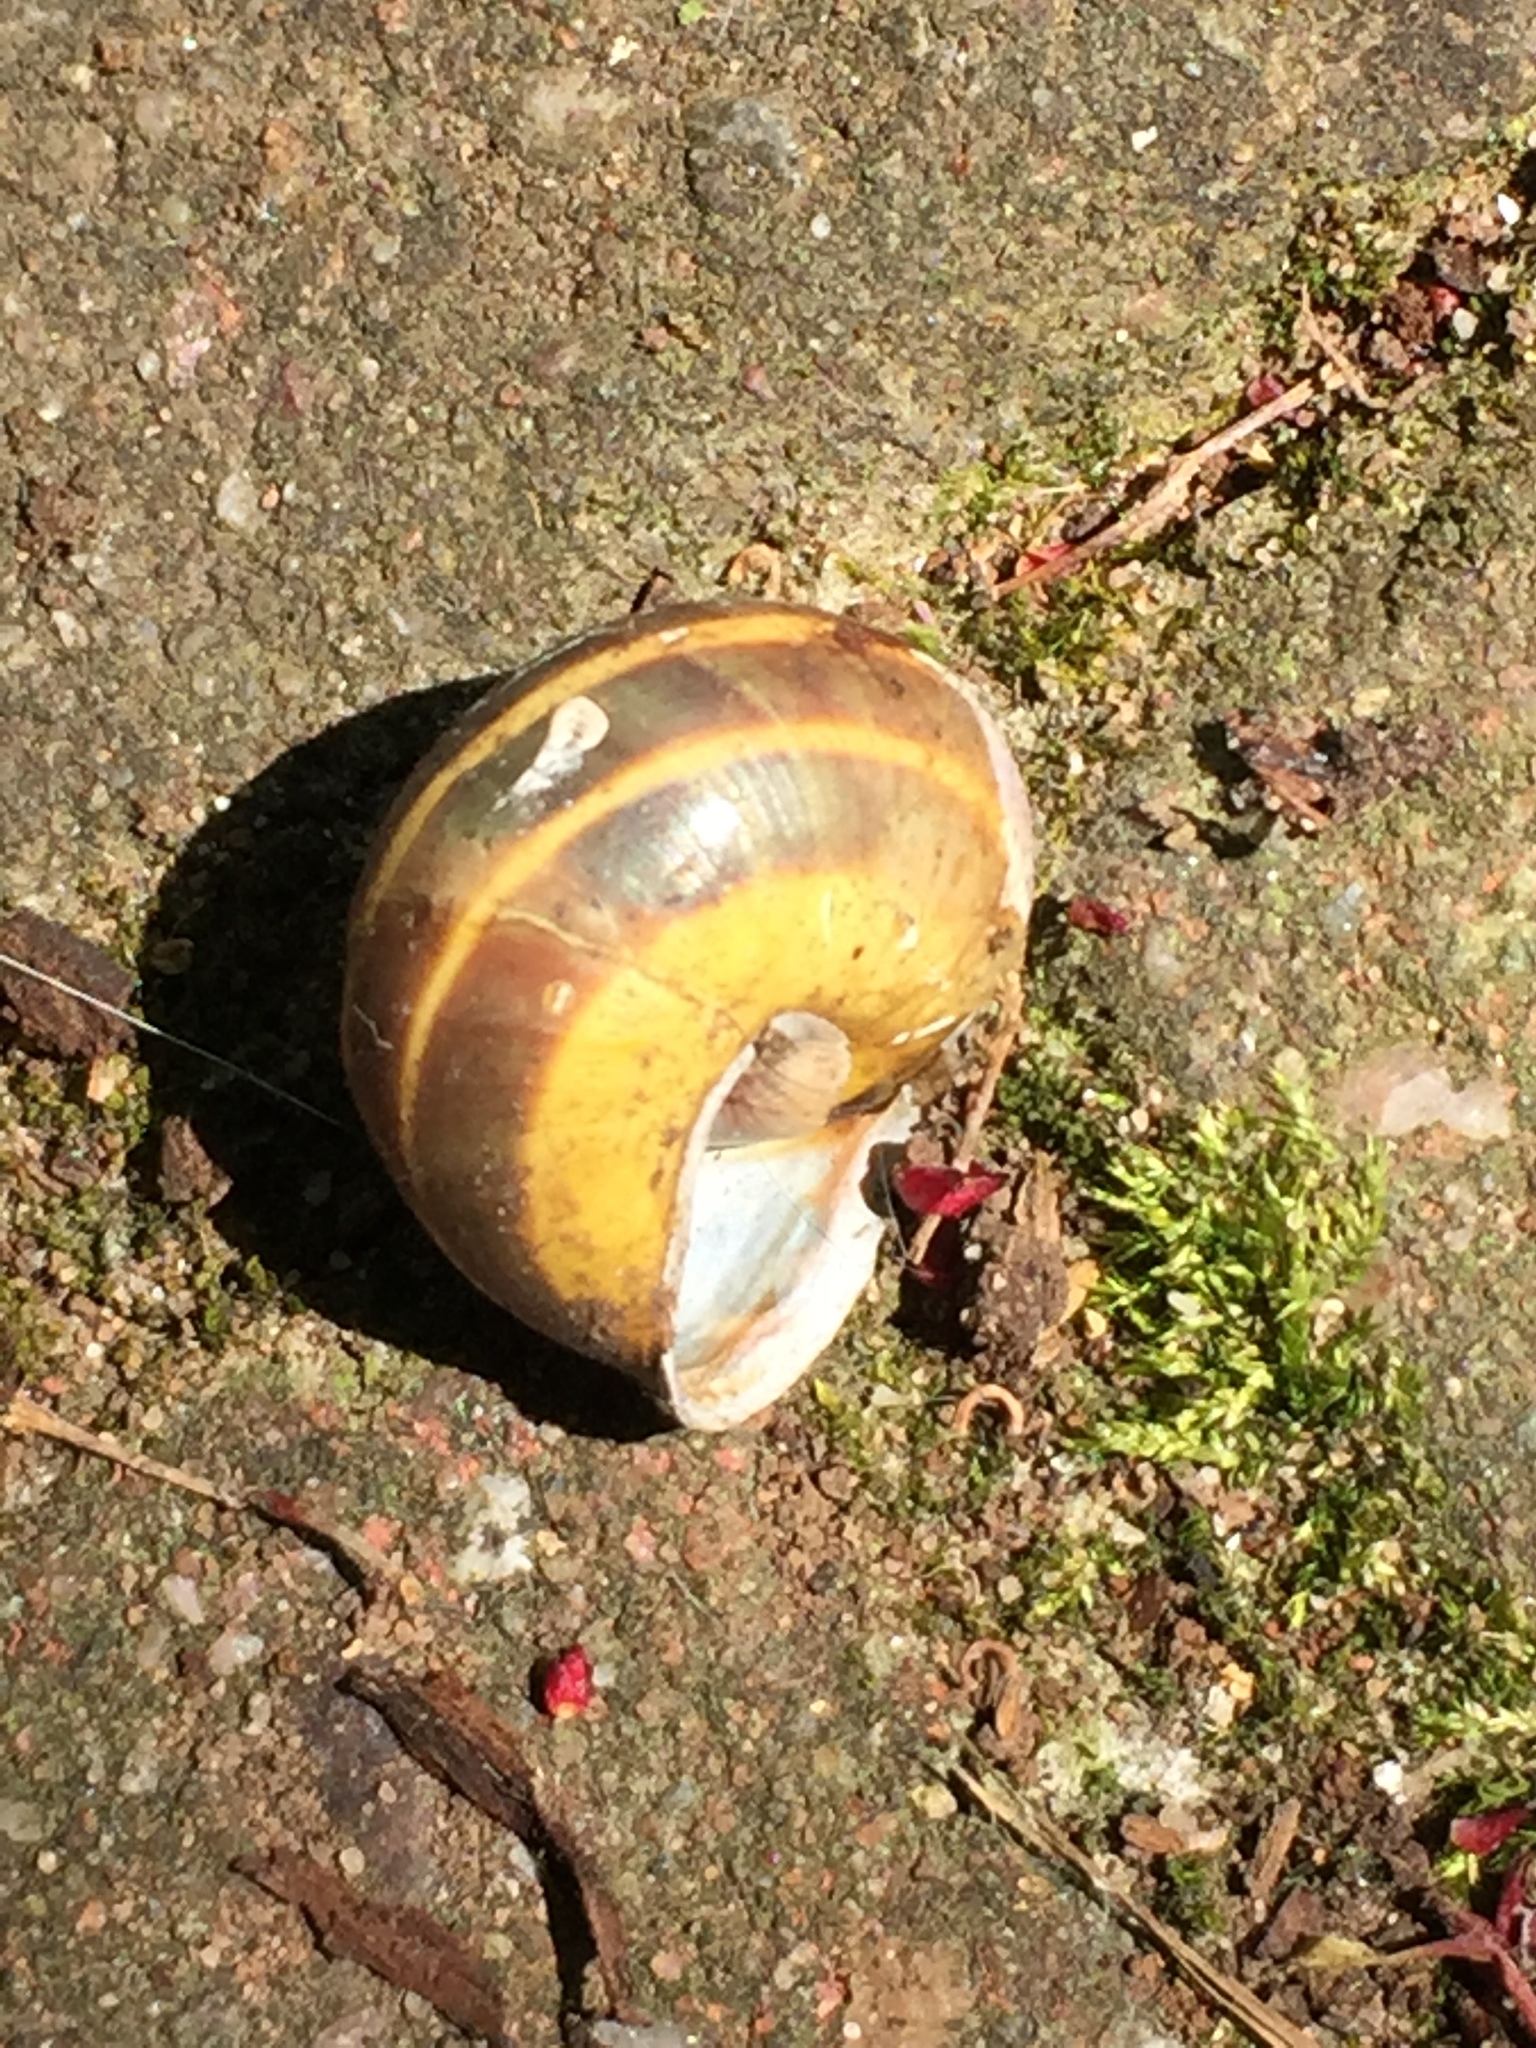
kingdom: Animalia
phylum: Mollusca
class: Gastropoda
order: Stylommatophora
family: Helicidae
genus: Cepaea
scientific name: Cepaea hortensis
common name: White-lip gardensnail
